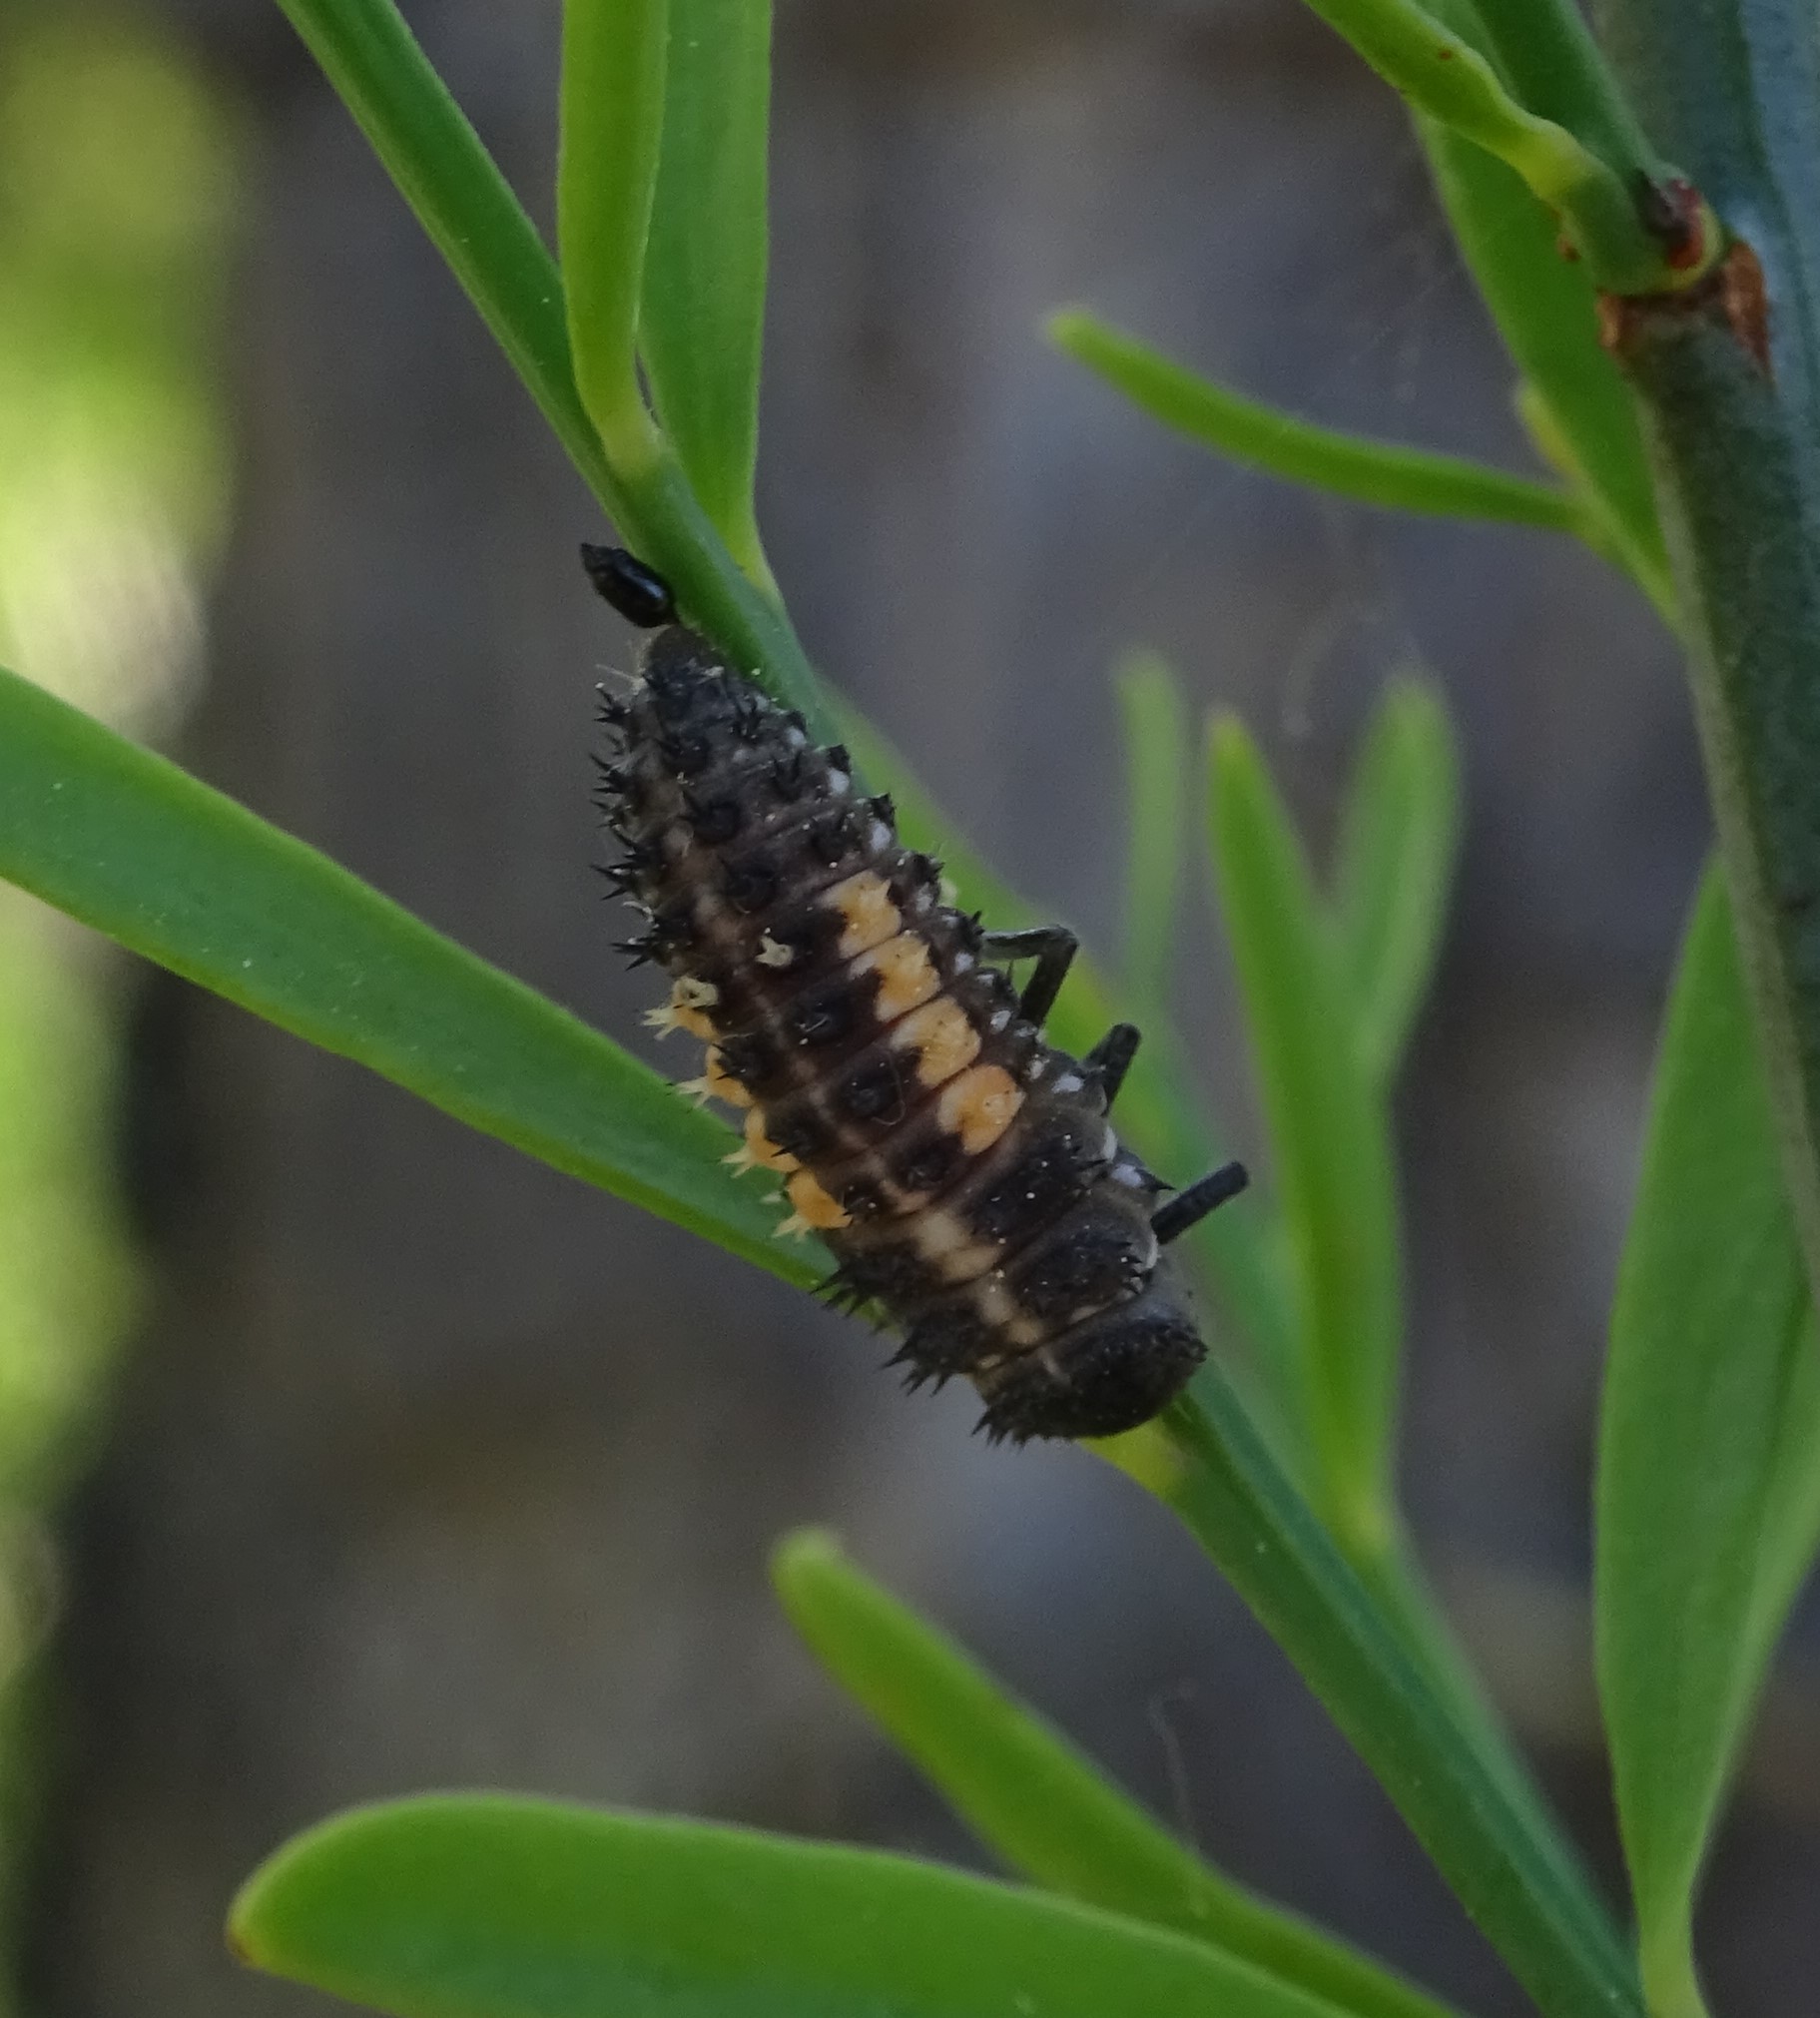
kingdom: Animalia
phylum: Arthropoda
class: Insecta
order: Coleoptera
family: Coccinellidae
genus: Harmonia
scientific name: Harmonia quadripunctata
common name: Cream-streaked ladybird
